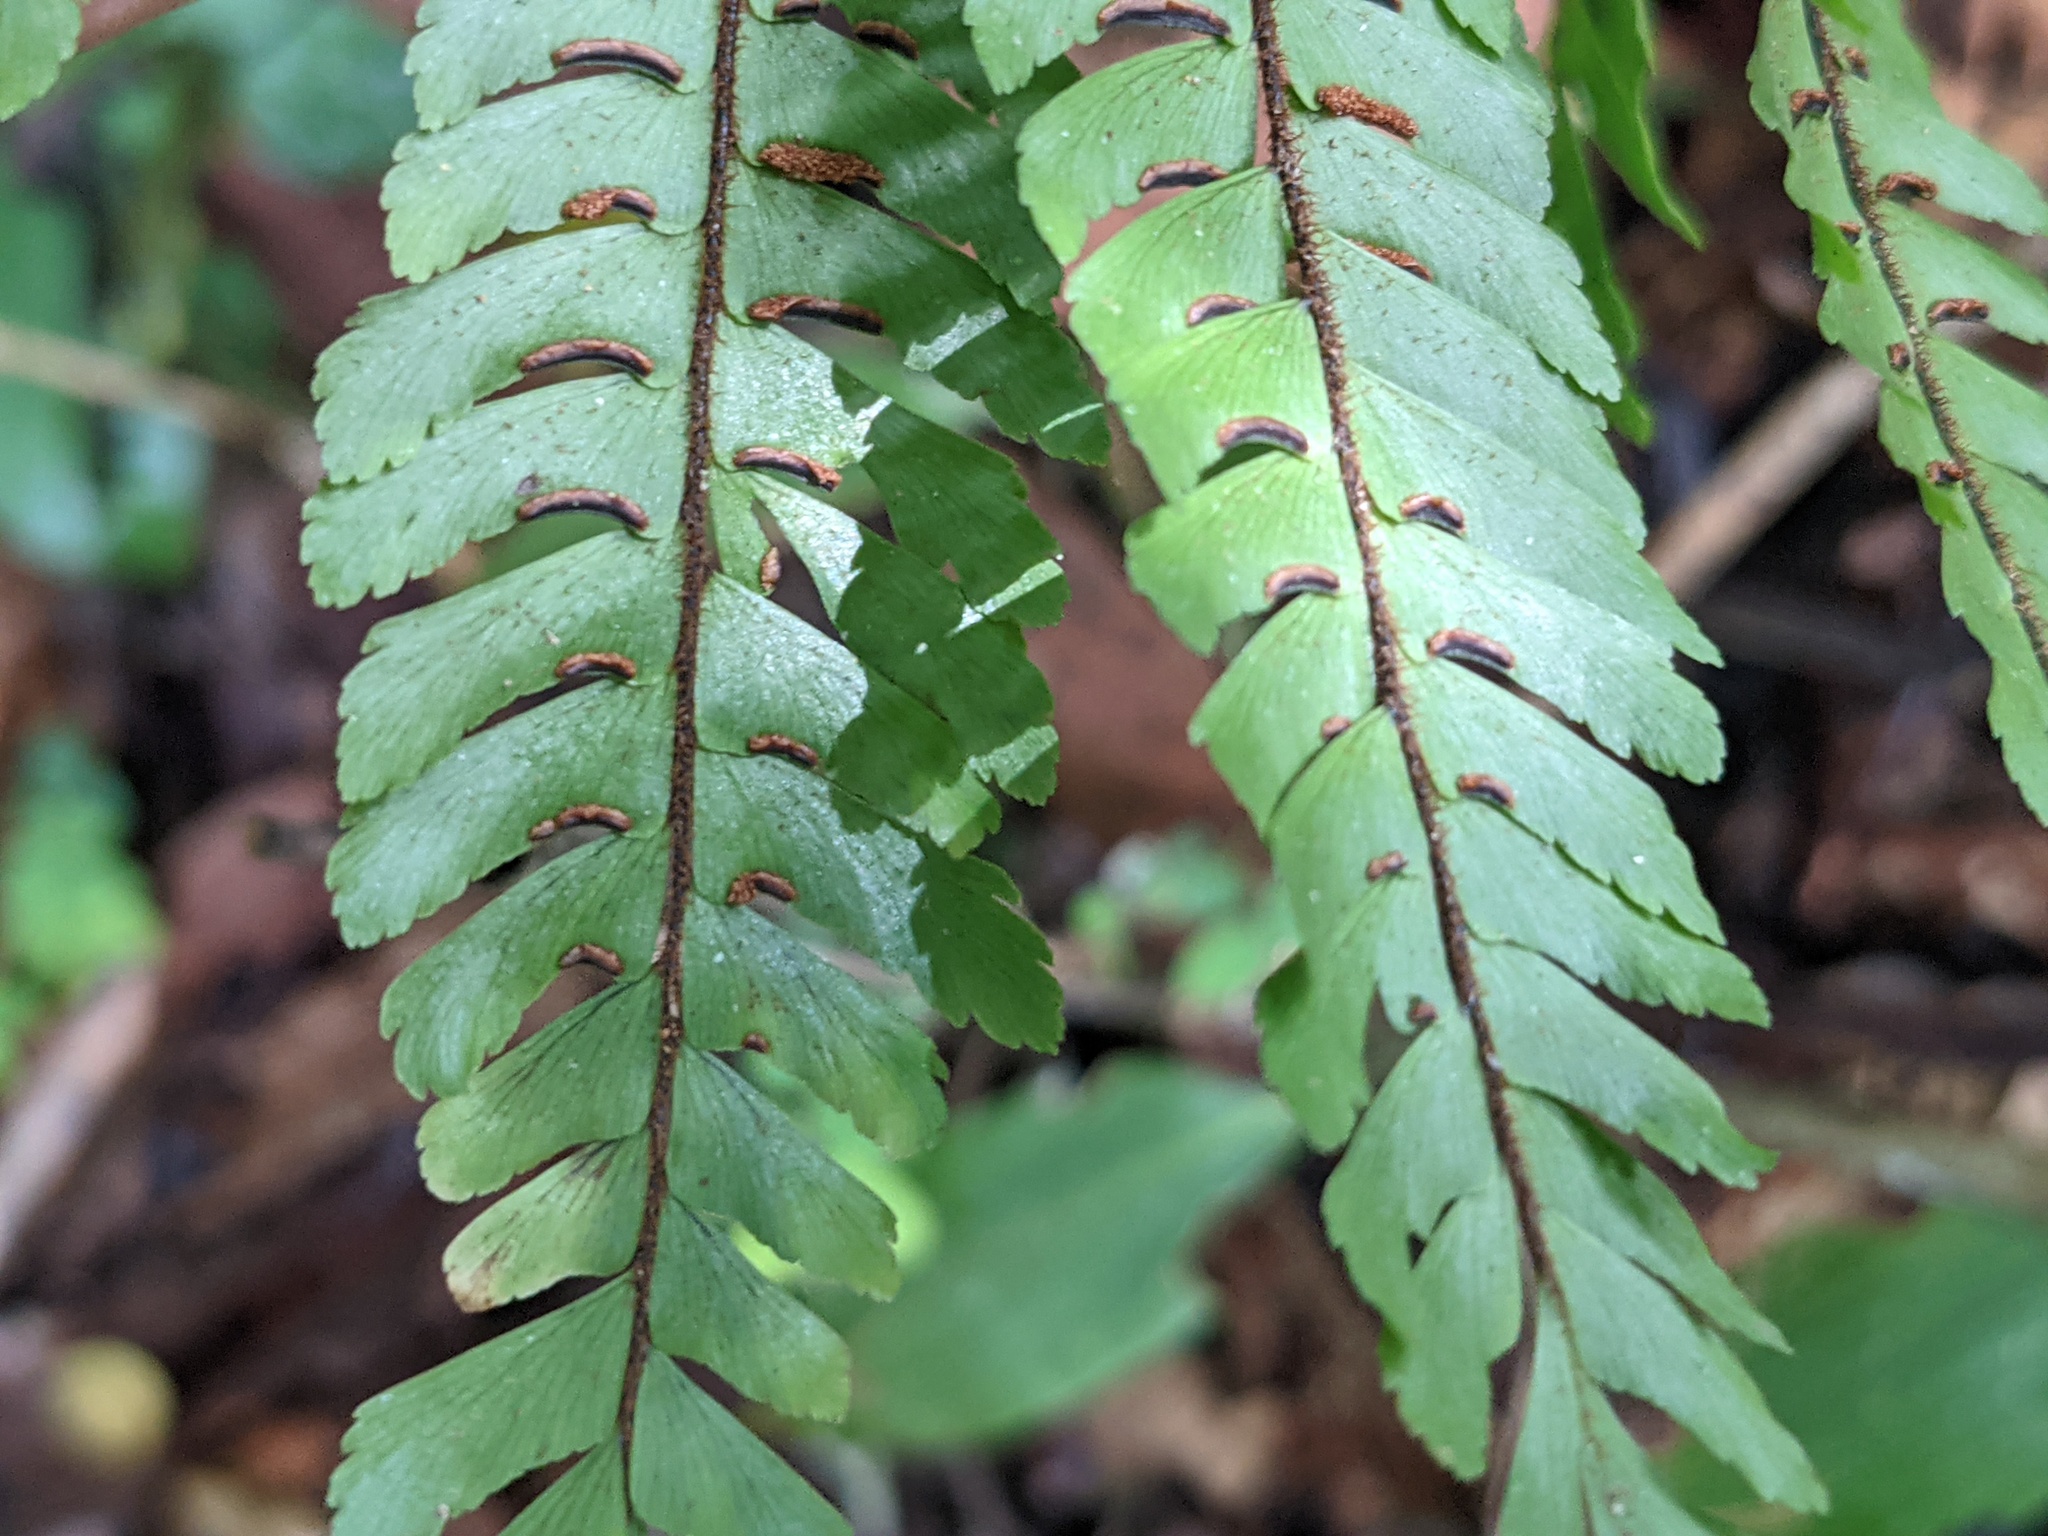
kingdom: Plantae
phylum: Tracheophyta
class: Polypodiopsida
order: Polypodiales
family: Pteridaceae
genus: Adiantum
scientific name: Adiantum pulverulentum
